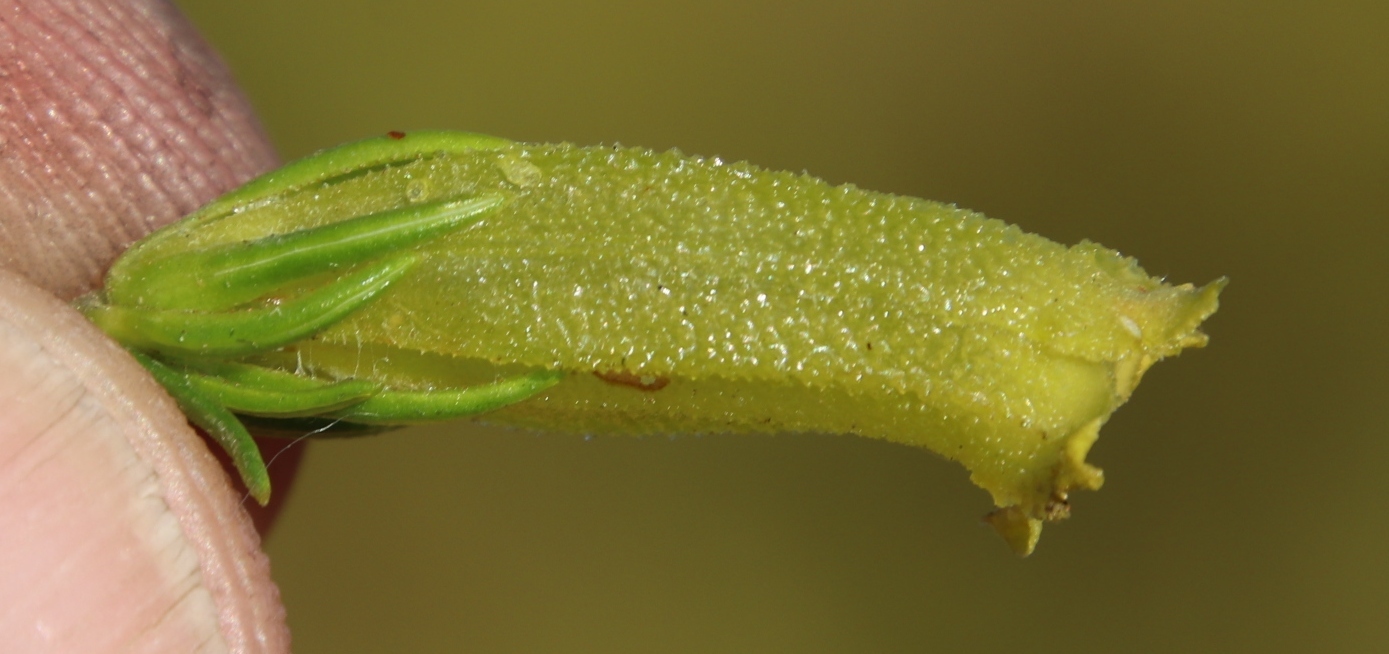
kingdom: Plantae
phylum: Tracheophyta
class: Magnoliopsida
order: Ericales
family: Ericaceae
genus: Erica
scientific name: Erica viscaria
